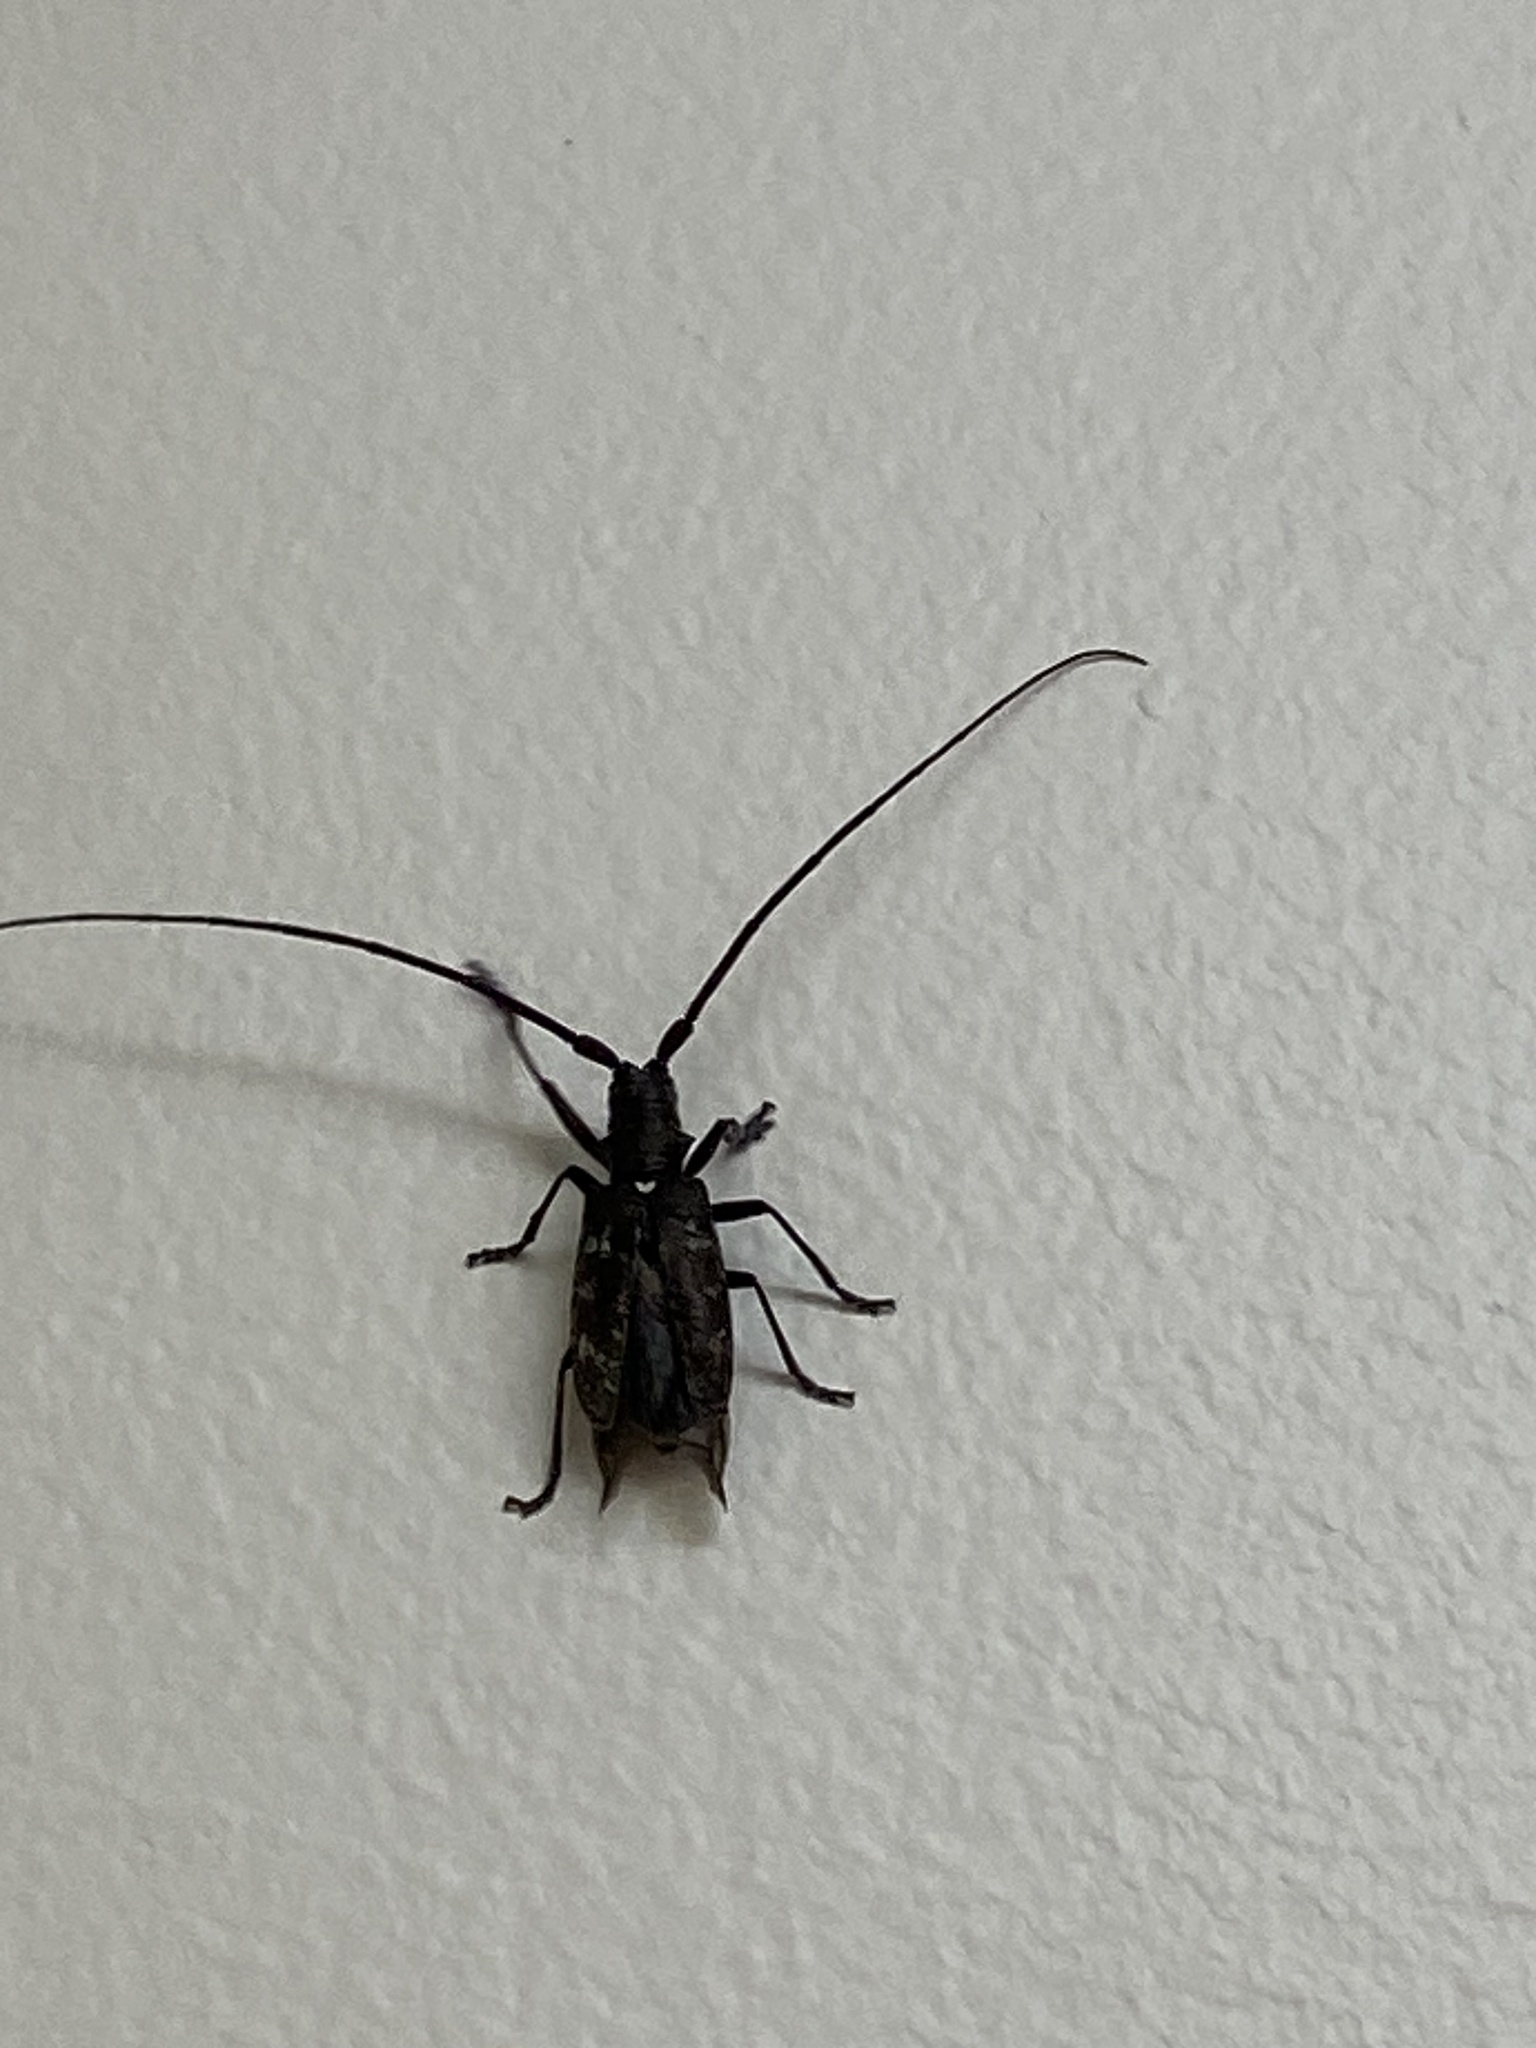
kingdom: Animalia
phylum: Arthropoda
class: Insecta
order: Coleoptera
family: Cerambycidae
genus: Monochamus
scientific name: Monochamus scutellatus
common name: White-spotted sawyer beetle
